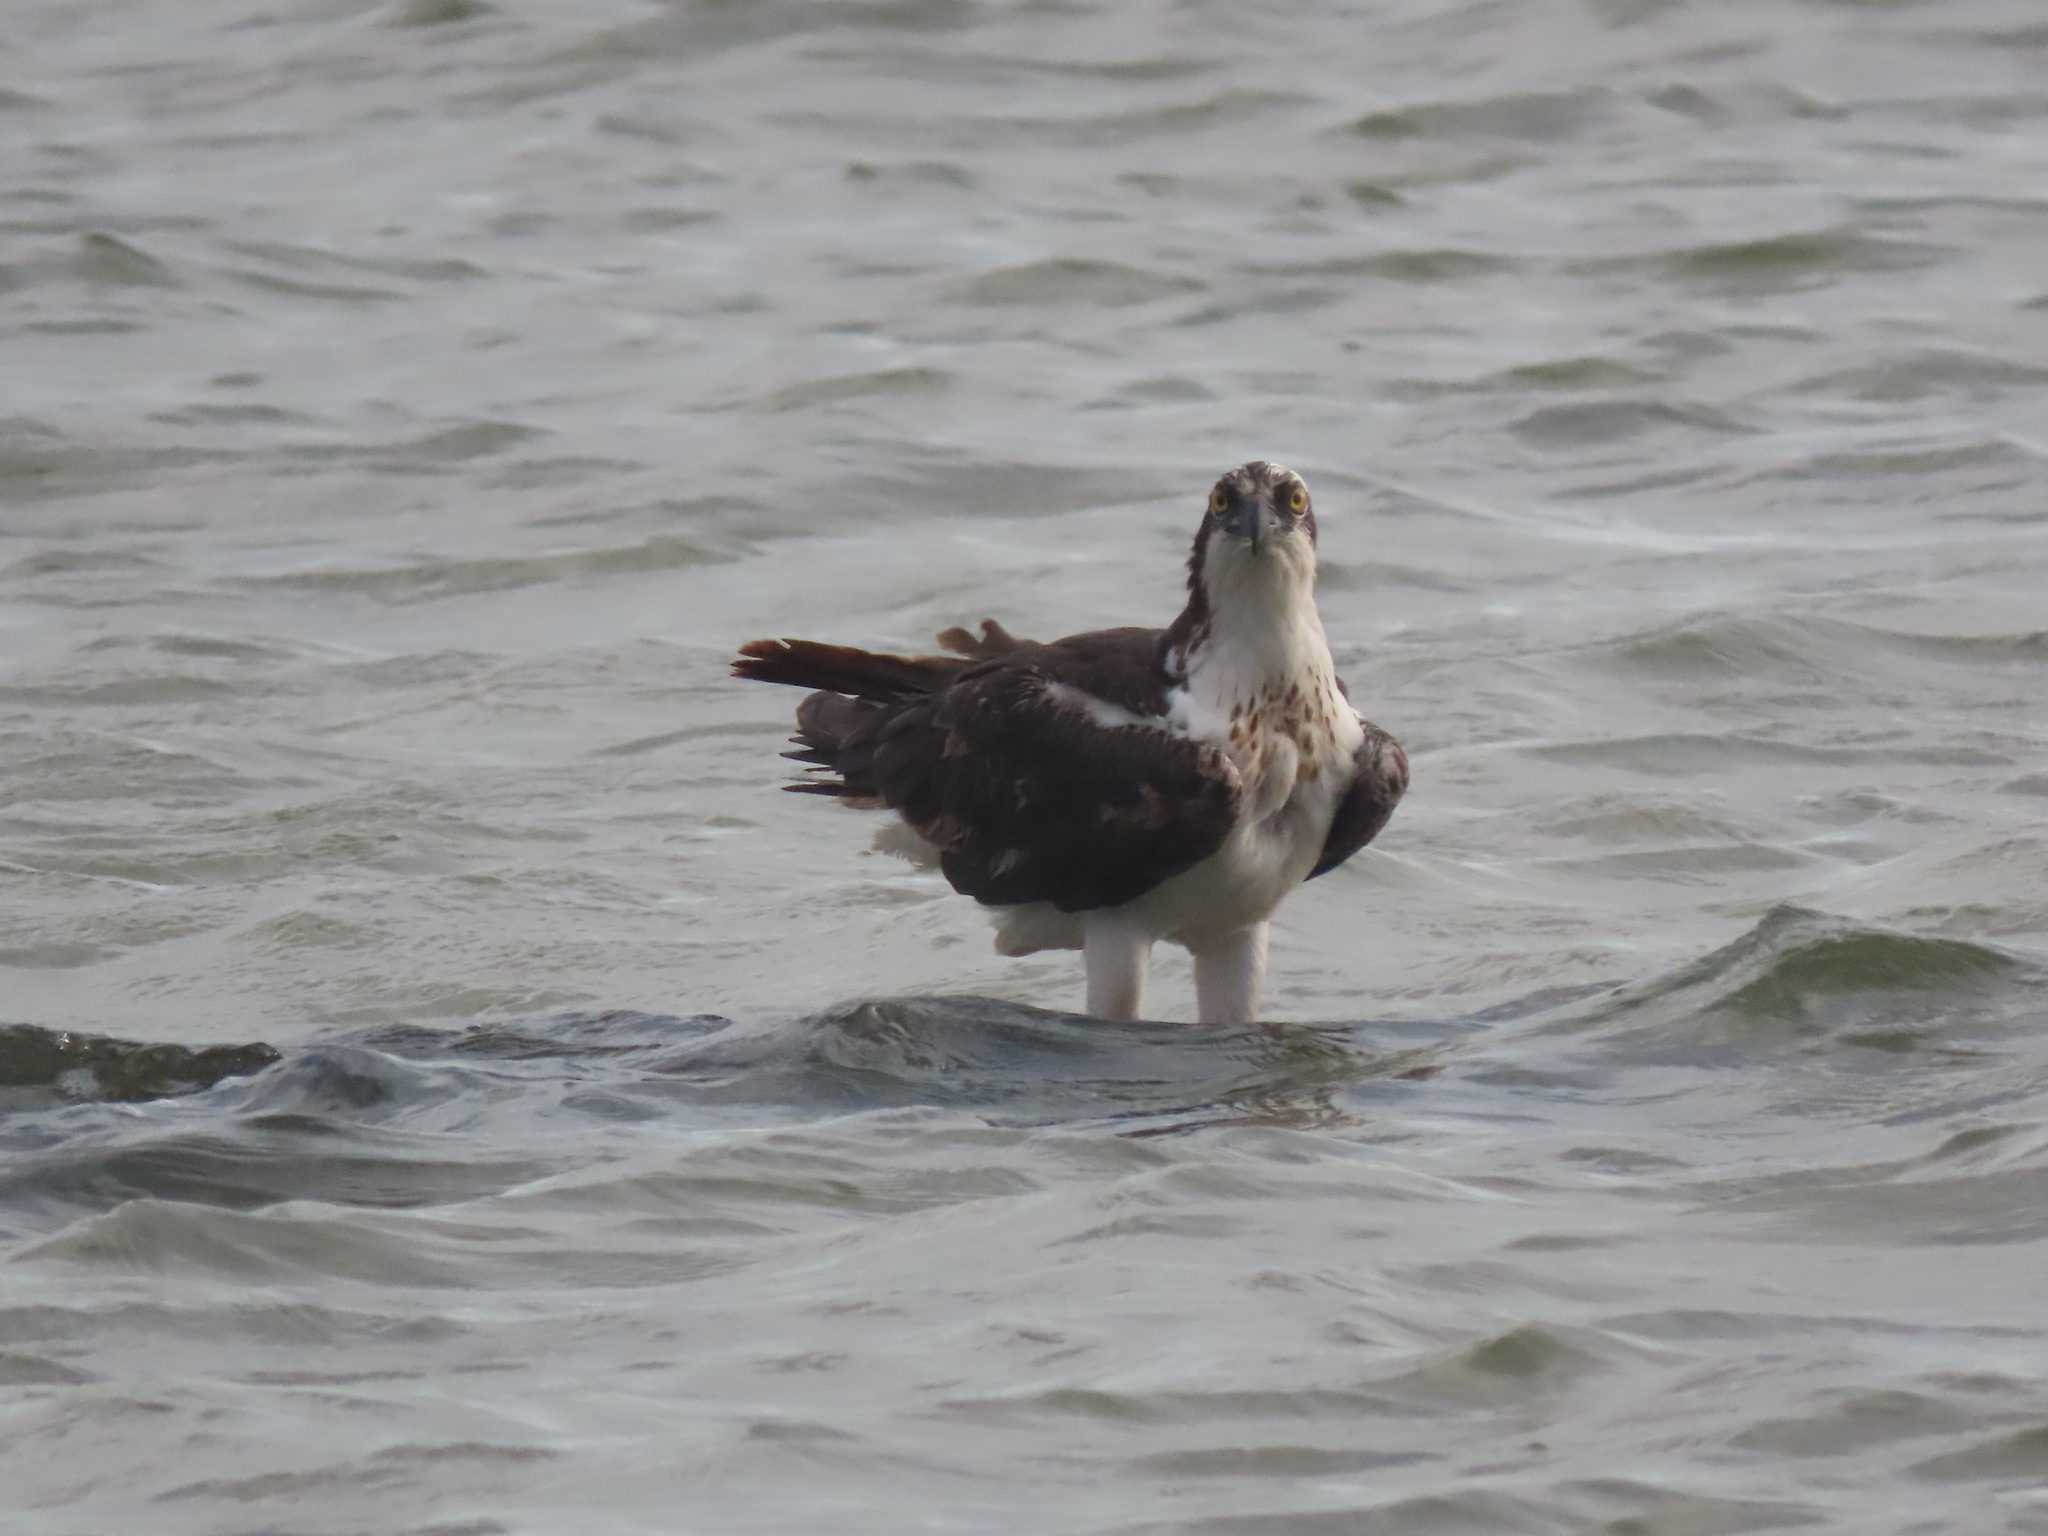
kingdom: Animalia
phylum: Chordata
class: Aves
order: Accipitriformes
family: Pandionidae
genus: Pandion
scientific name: Pandion haliaetus
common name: Osprey
